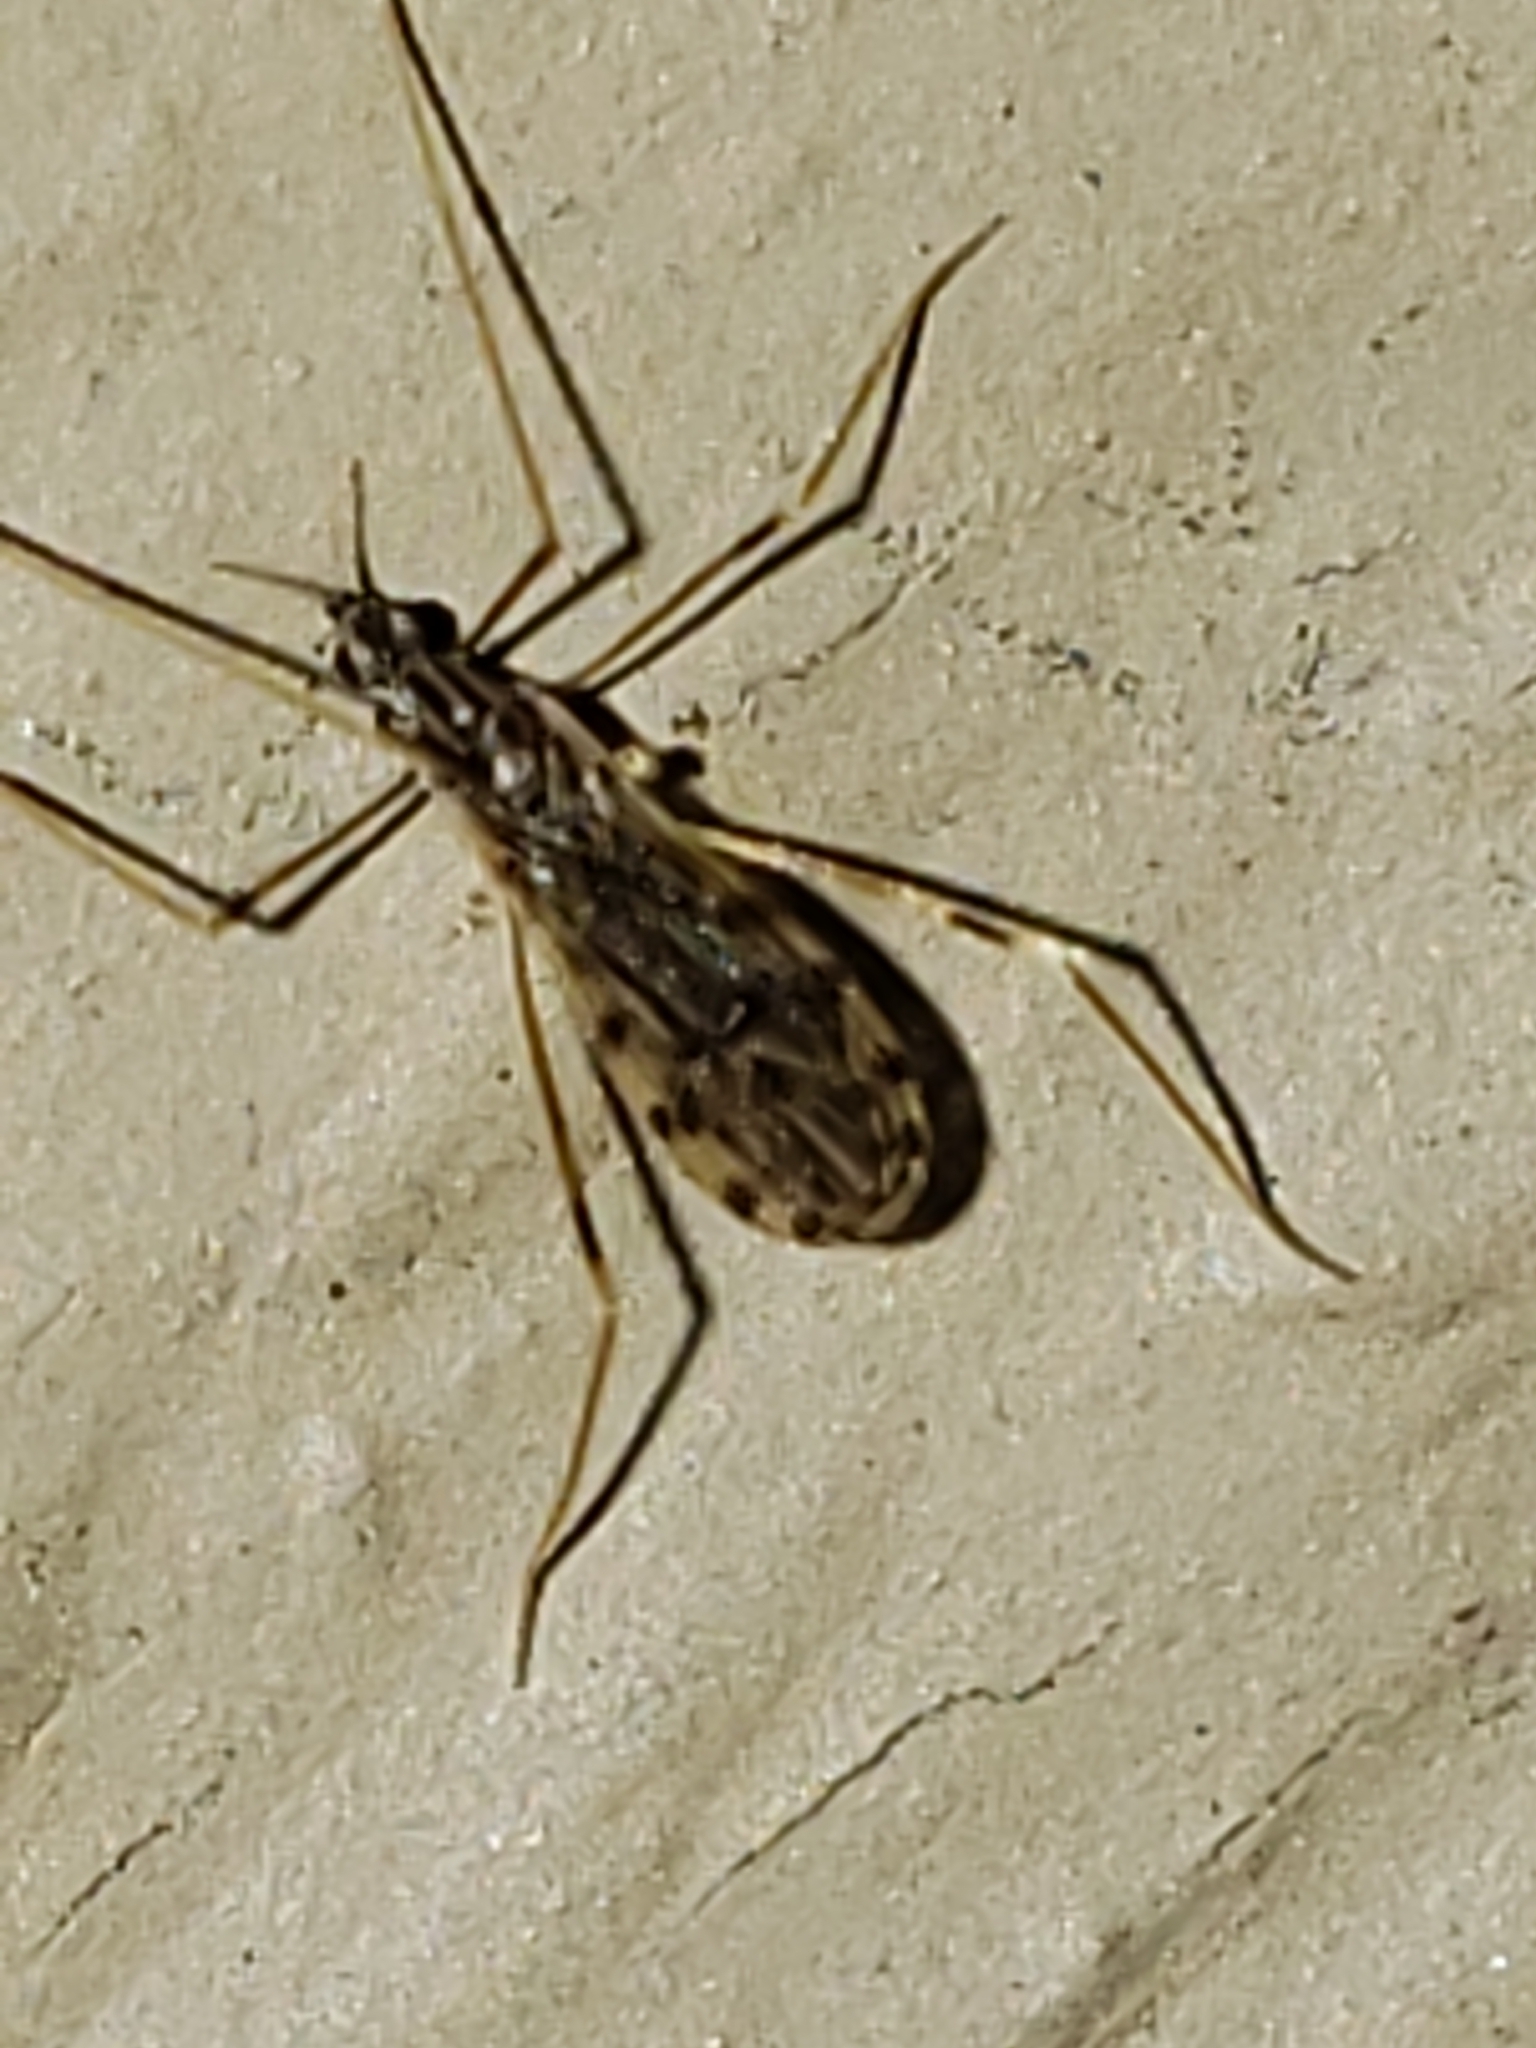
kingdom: Animalia
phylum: Arthropoda
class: Insecta
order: Diptera
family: Limoniidae
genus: Erioptera
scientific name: Erioptera parva
